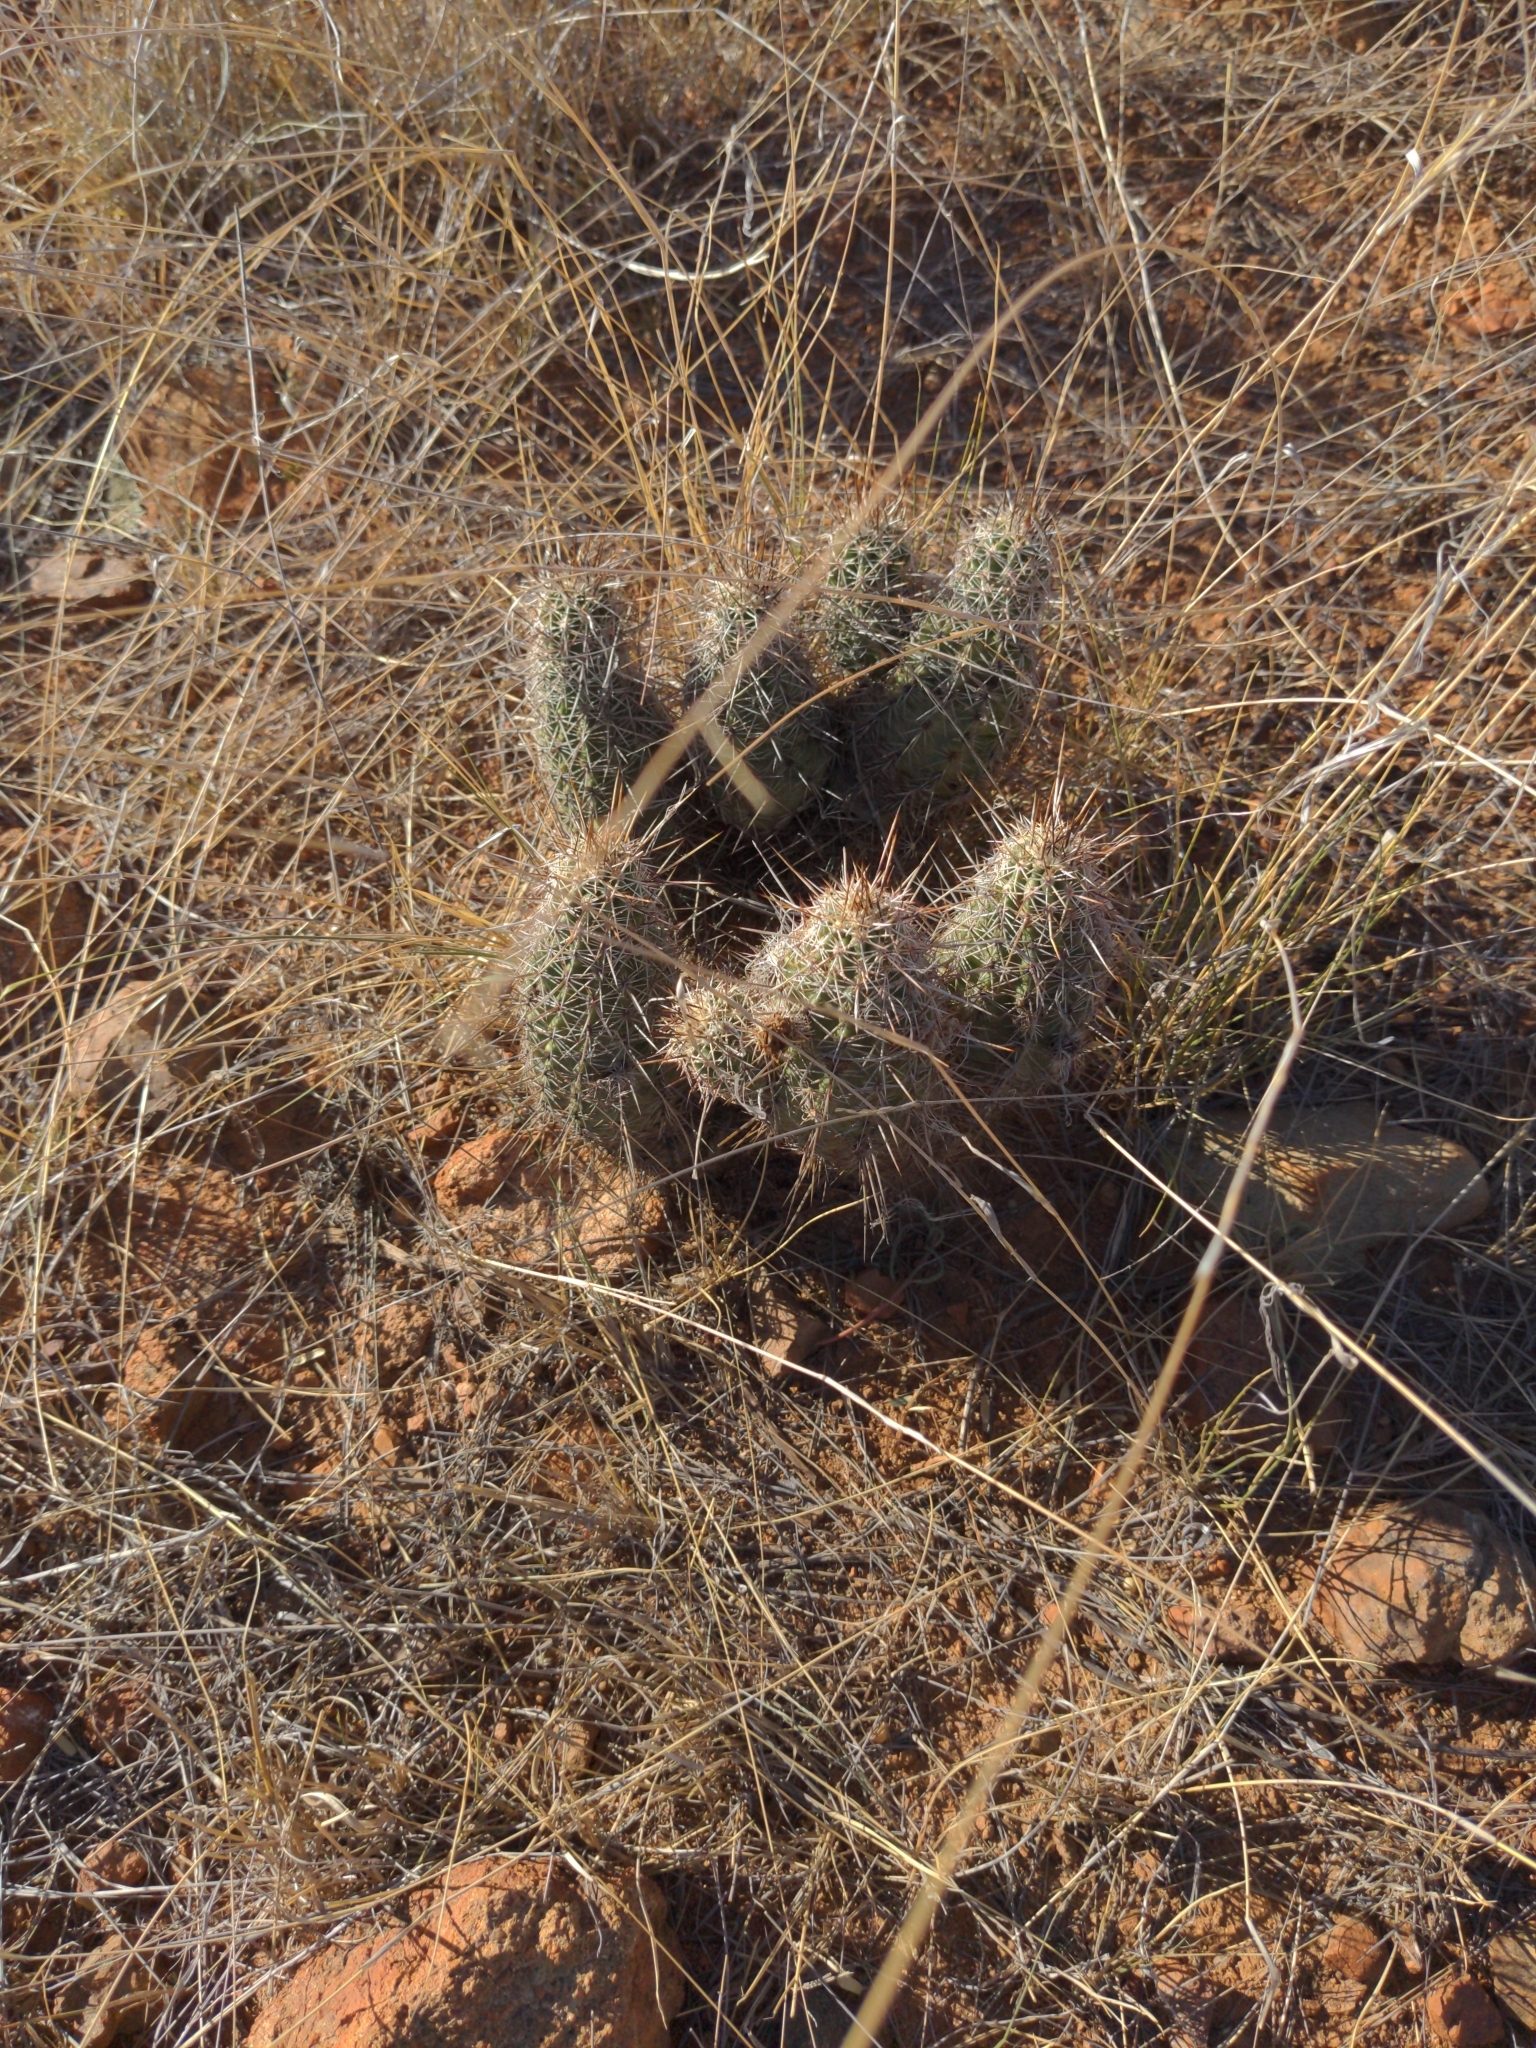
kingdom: Plantae
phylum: Tracheophyta
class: Magnoliopsida
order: Caryophyllales
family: Cactaceae
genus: Echinocereus
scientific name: Echinocereus fasciculatus
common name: Bundle hedgehog
